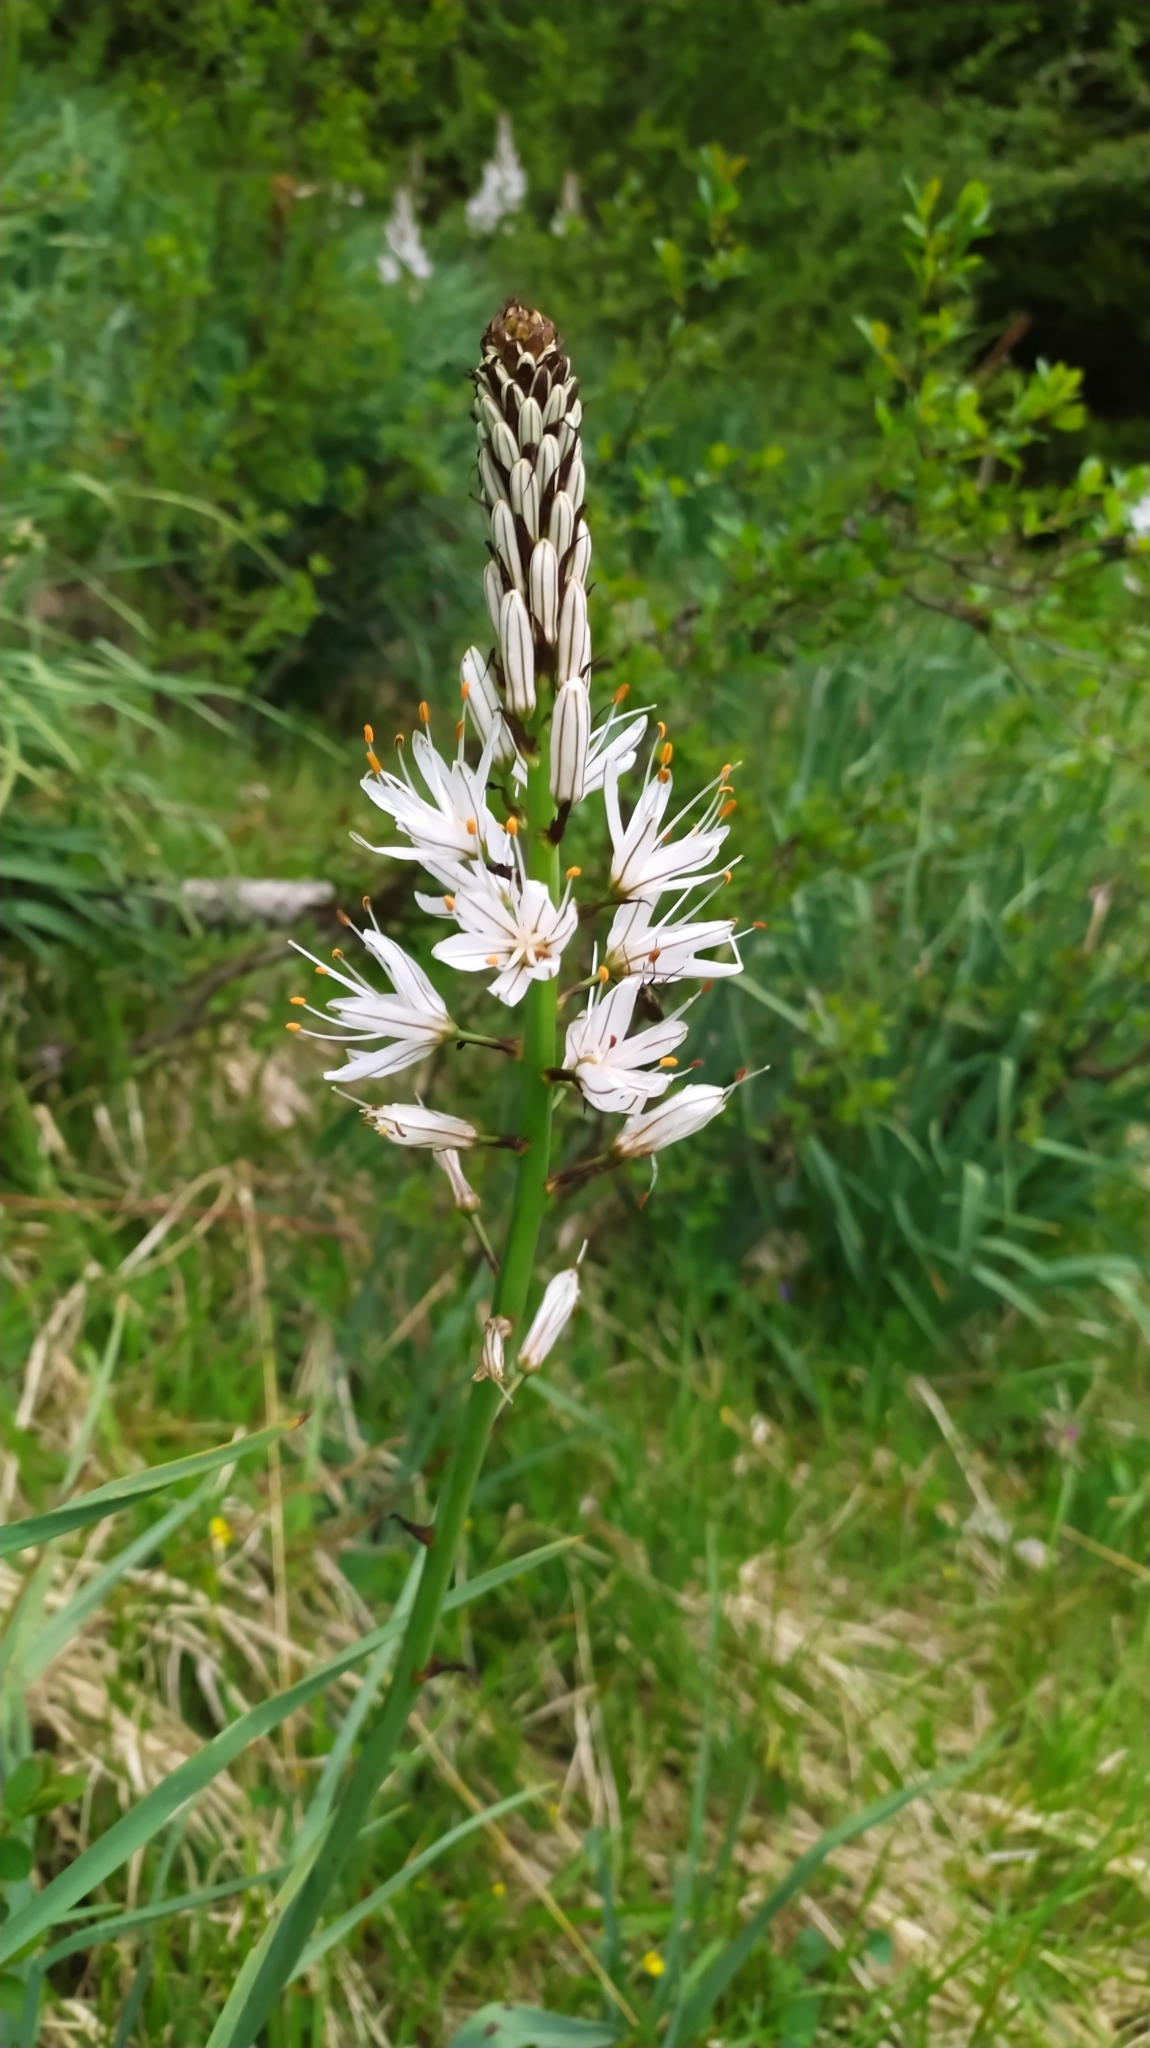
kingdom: Plantae
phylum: Tracheophyta
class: Liliopsida
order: Asparagales
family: Asphodelaceae
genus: Asphodelus
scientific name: Asphodelus albus
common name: White asphodel
